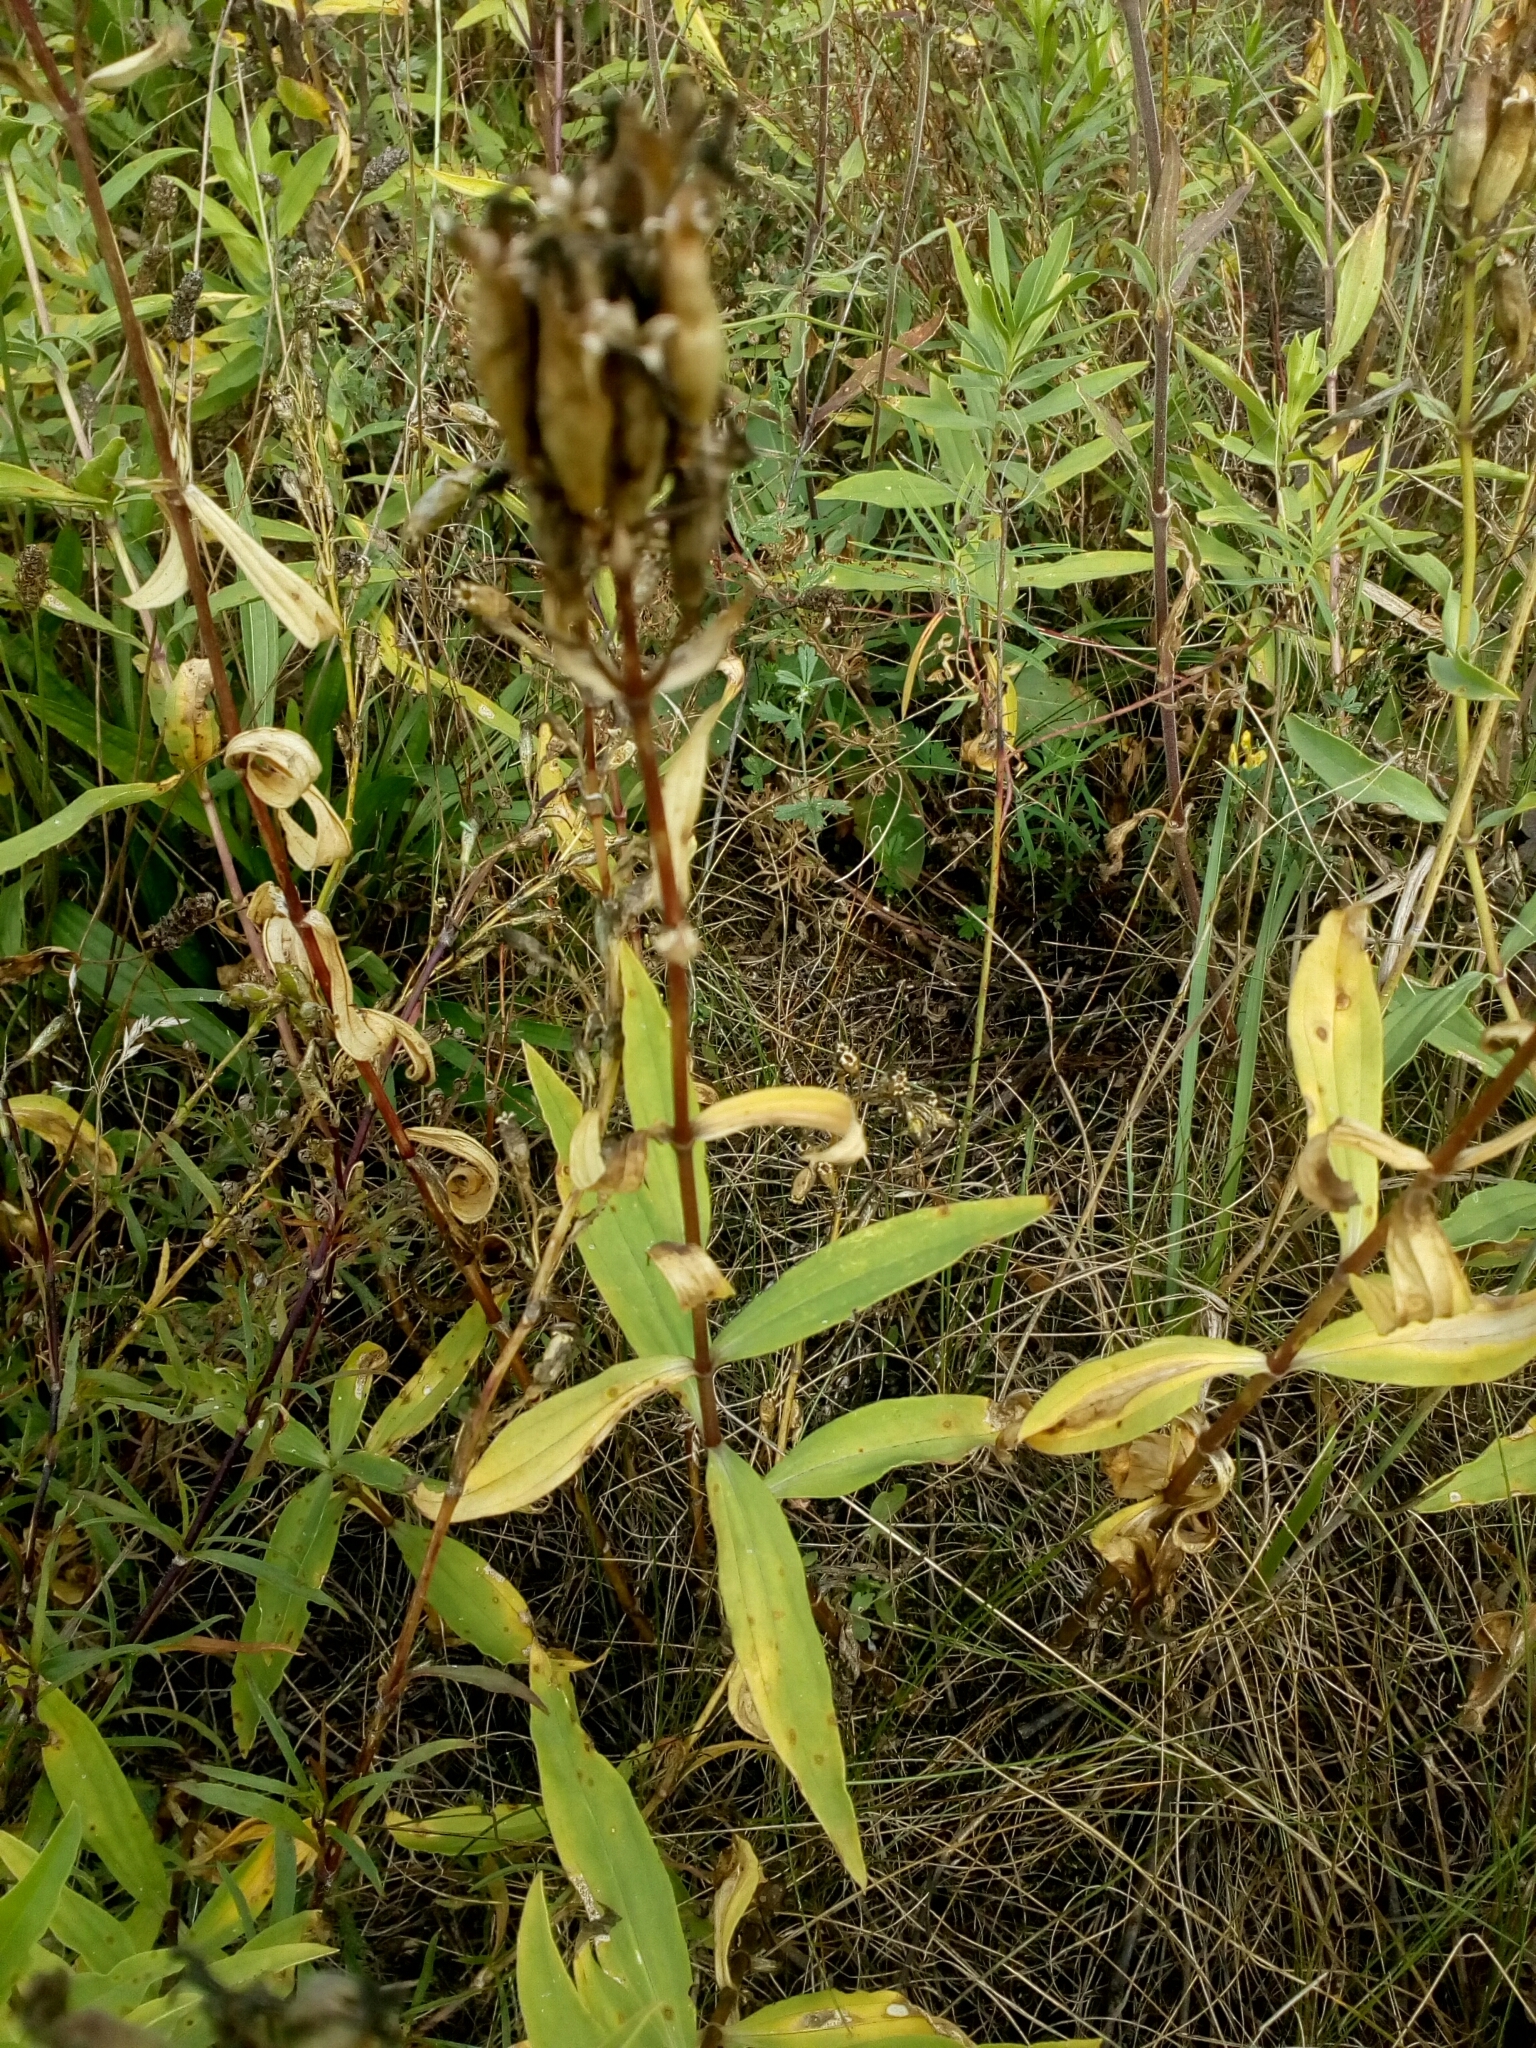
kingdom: Plantae
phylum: Tracheophyta
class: Magnoliopsida
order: Caryophyllales
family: Caryophyllaceae
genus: Saponaria
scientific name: Saponaria officinalis
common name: Soapwort
